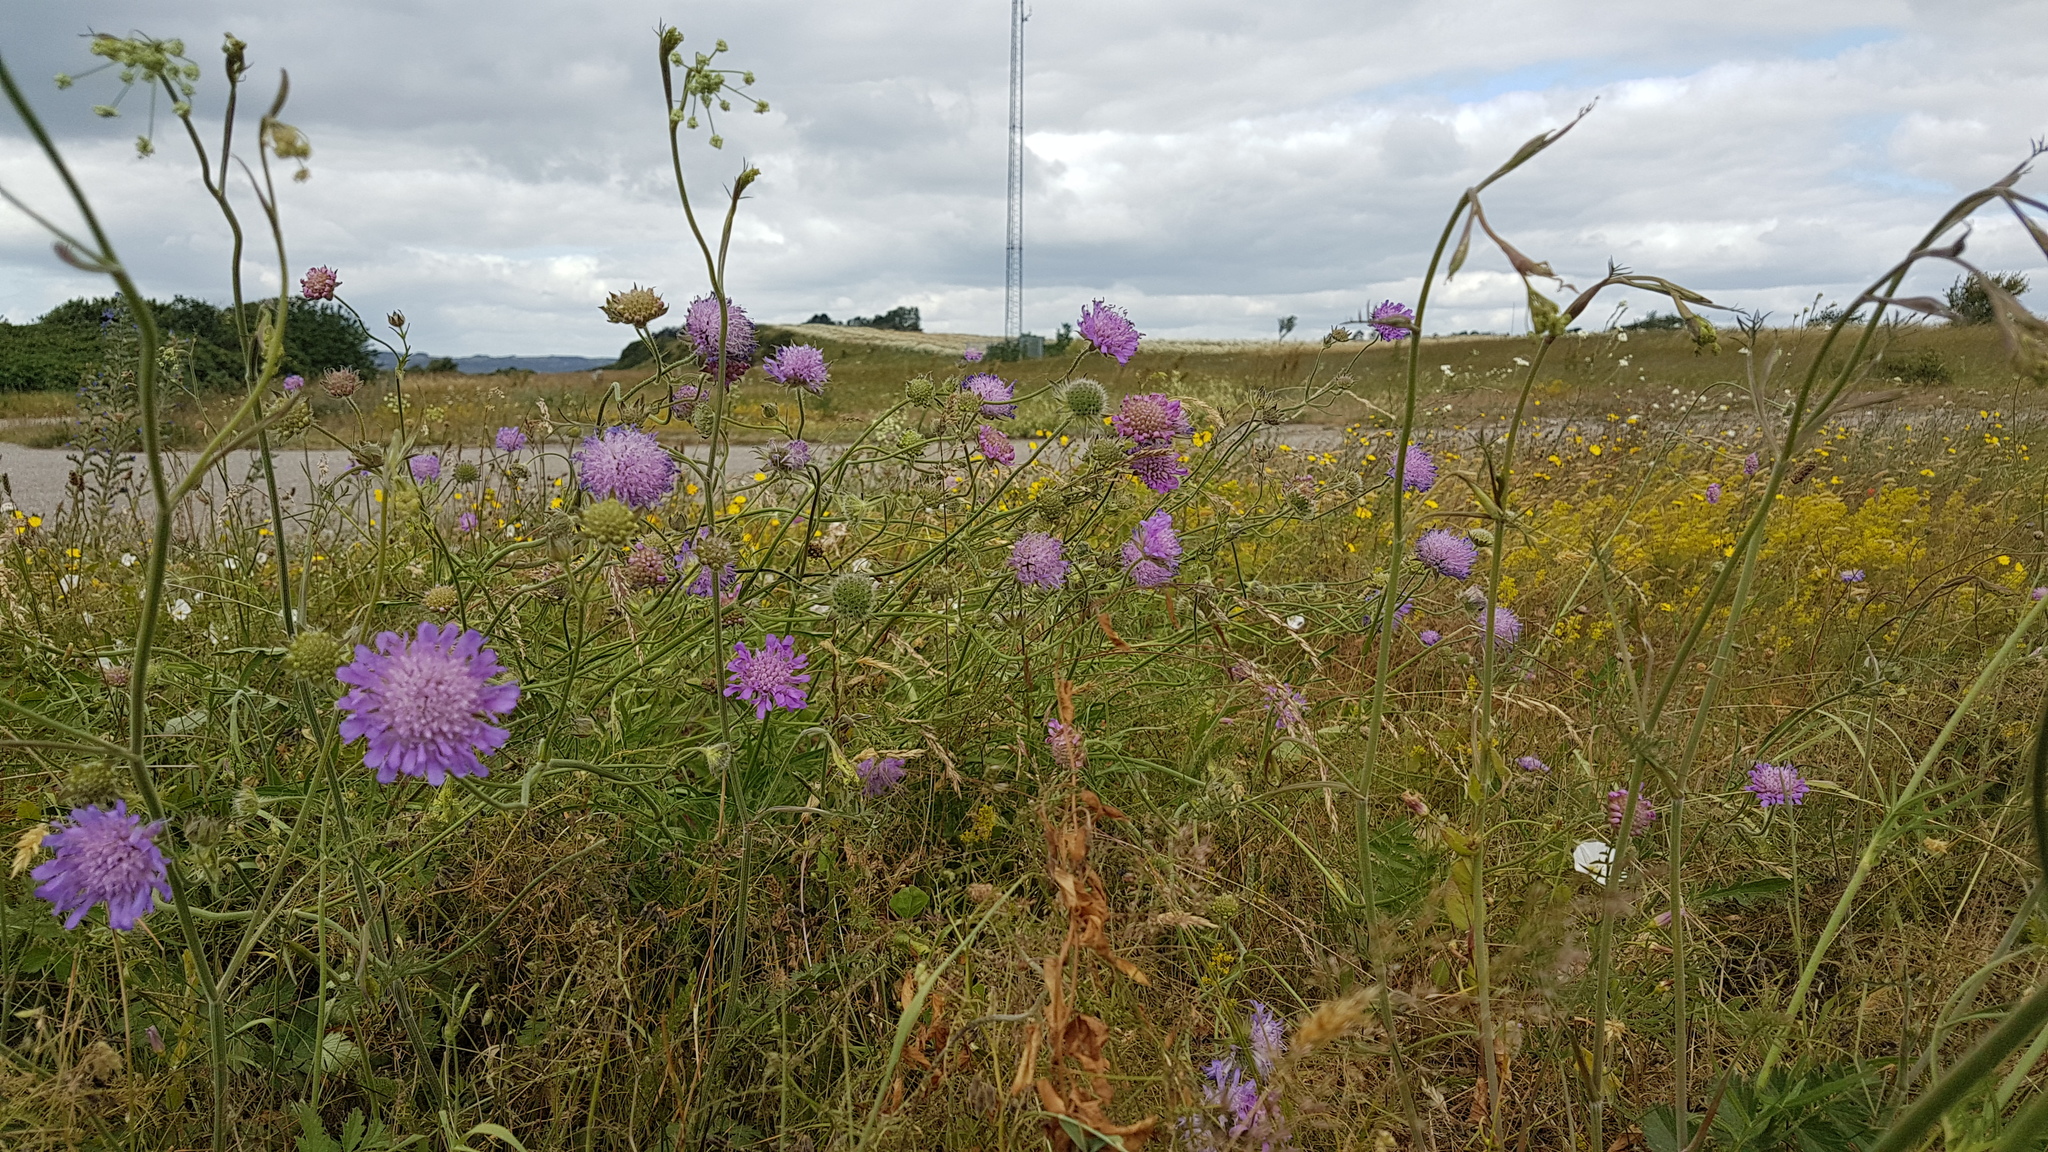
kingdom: Plantae
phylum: Tracheophyta
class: Magnoliopsida
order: Dipsacales
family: Caprifoliaceae
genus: Knautia
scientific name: Knautia arvensis
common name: Field scabiosa
